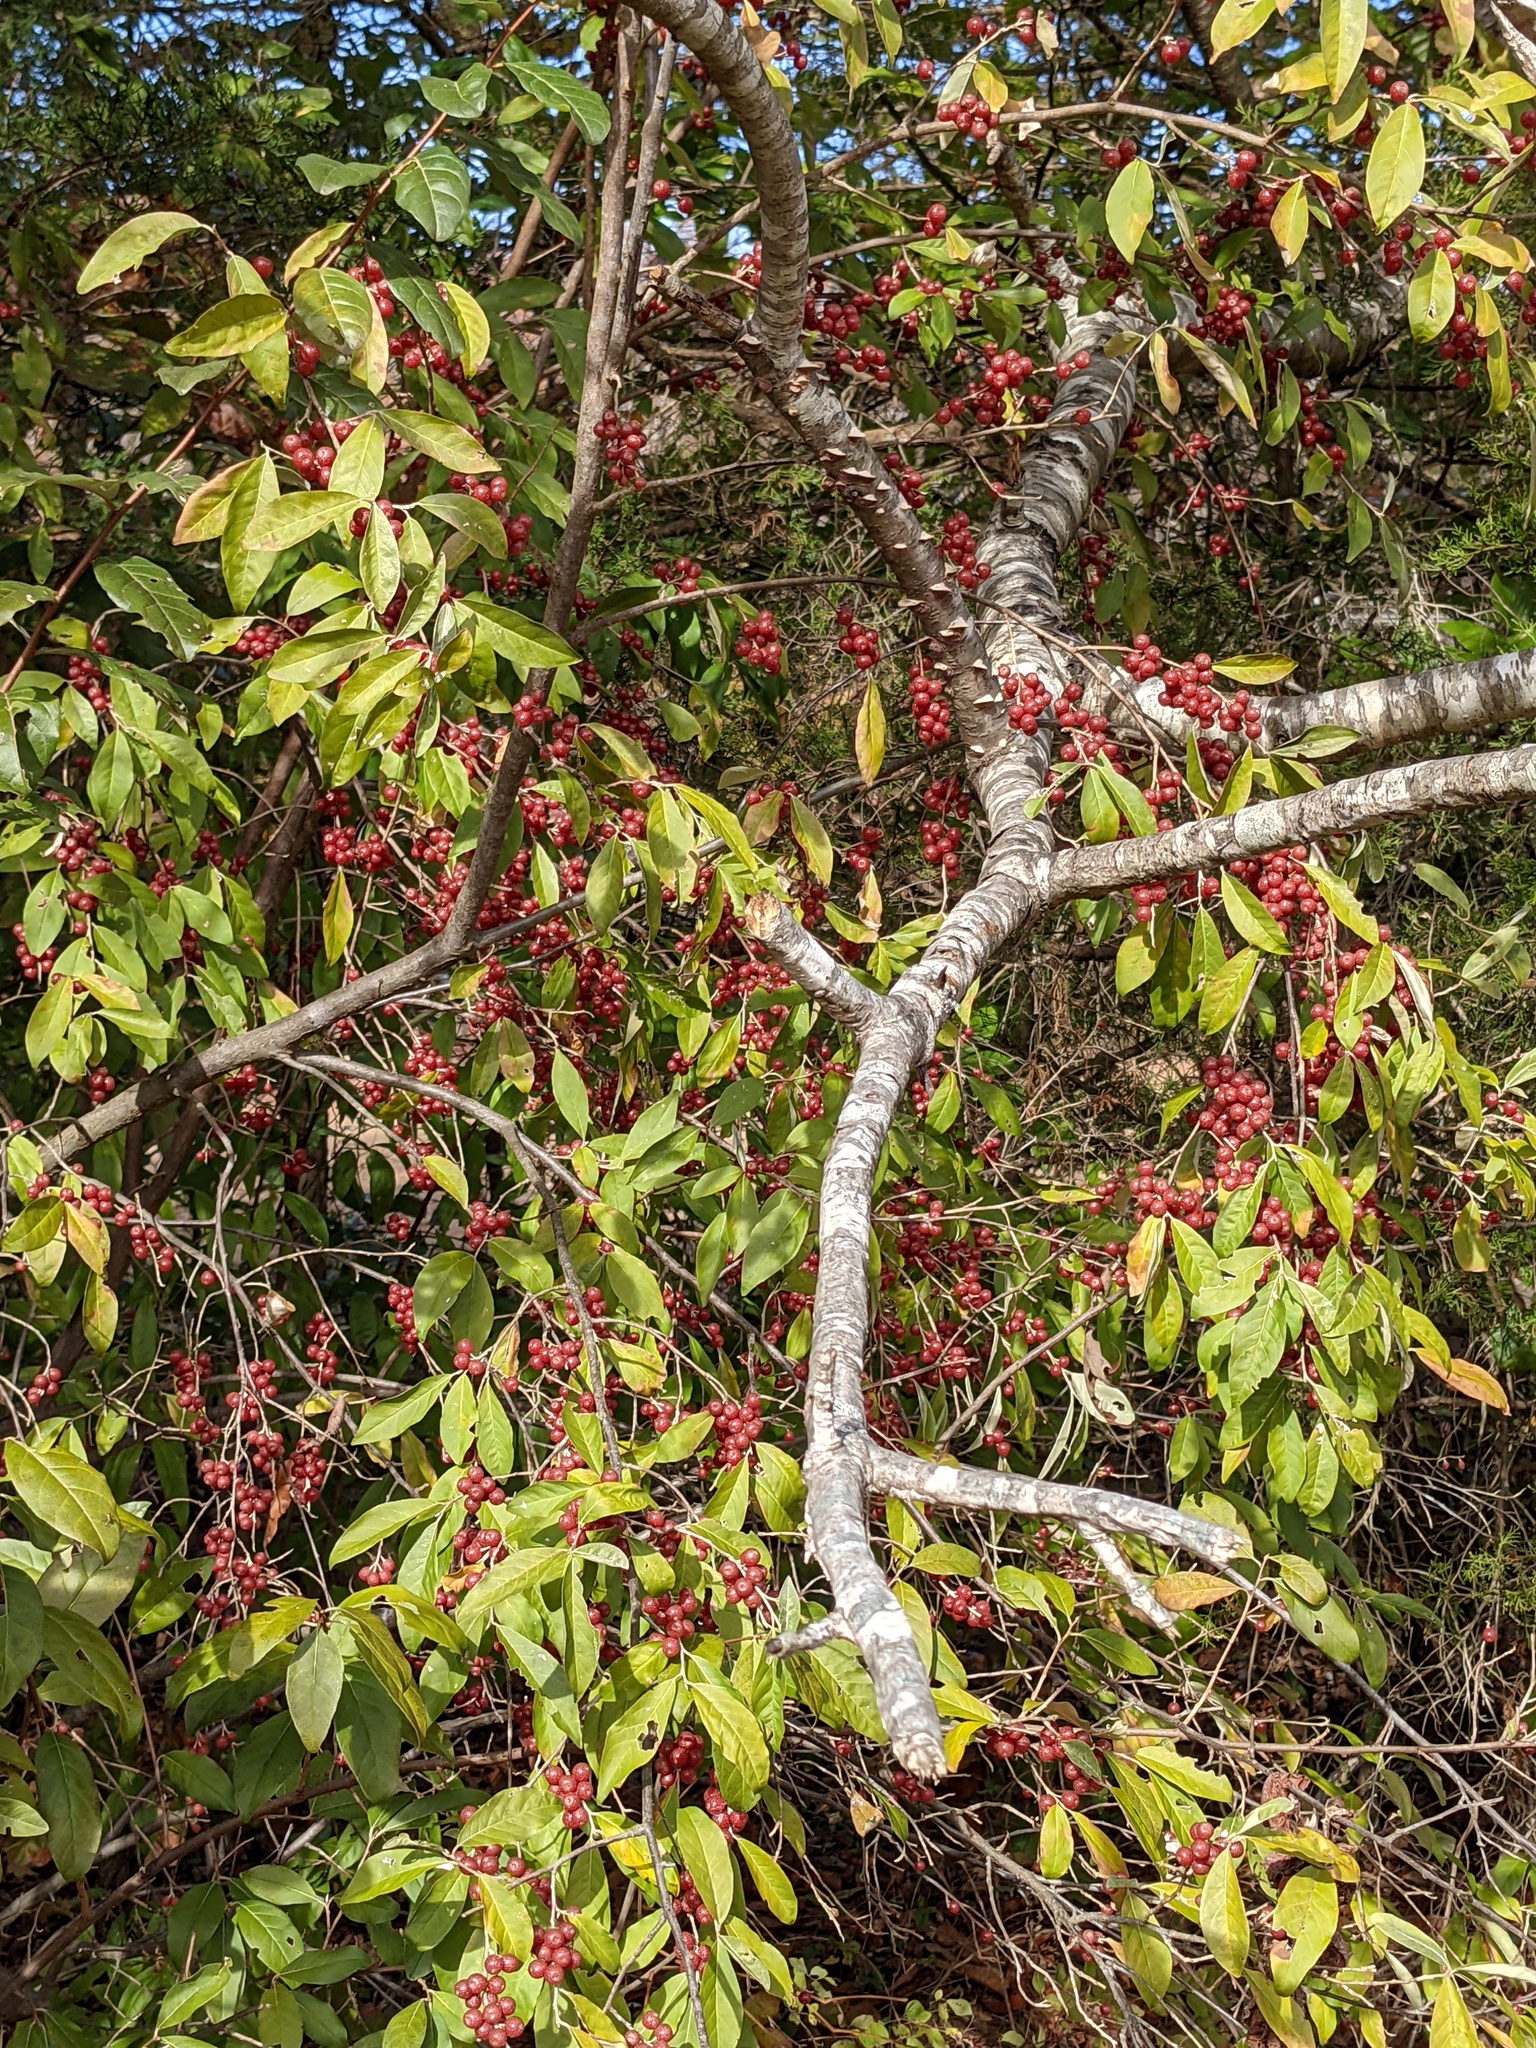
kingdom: Plantae
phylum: Tracheophyta
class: Magnoliopsida
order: Rosales
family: Elaeagnaceae
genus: Elaeagnus
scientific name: Elaeagnus umbellata
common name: Autumn olive
